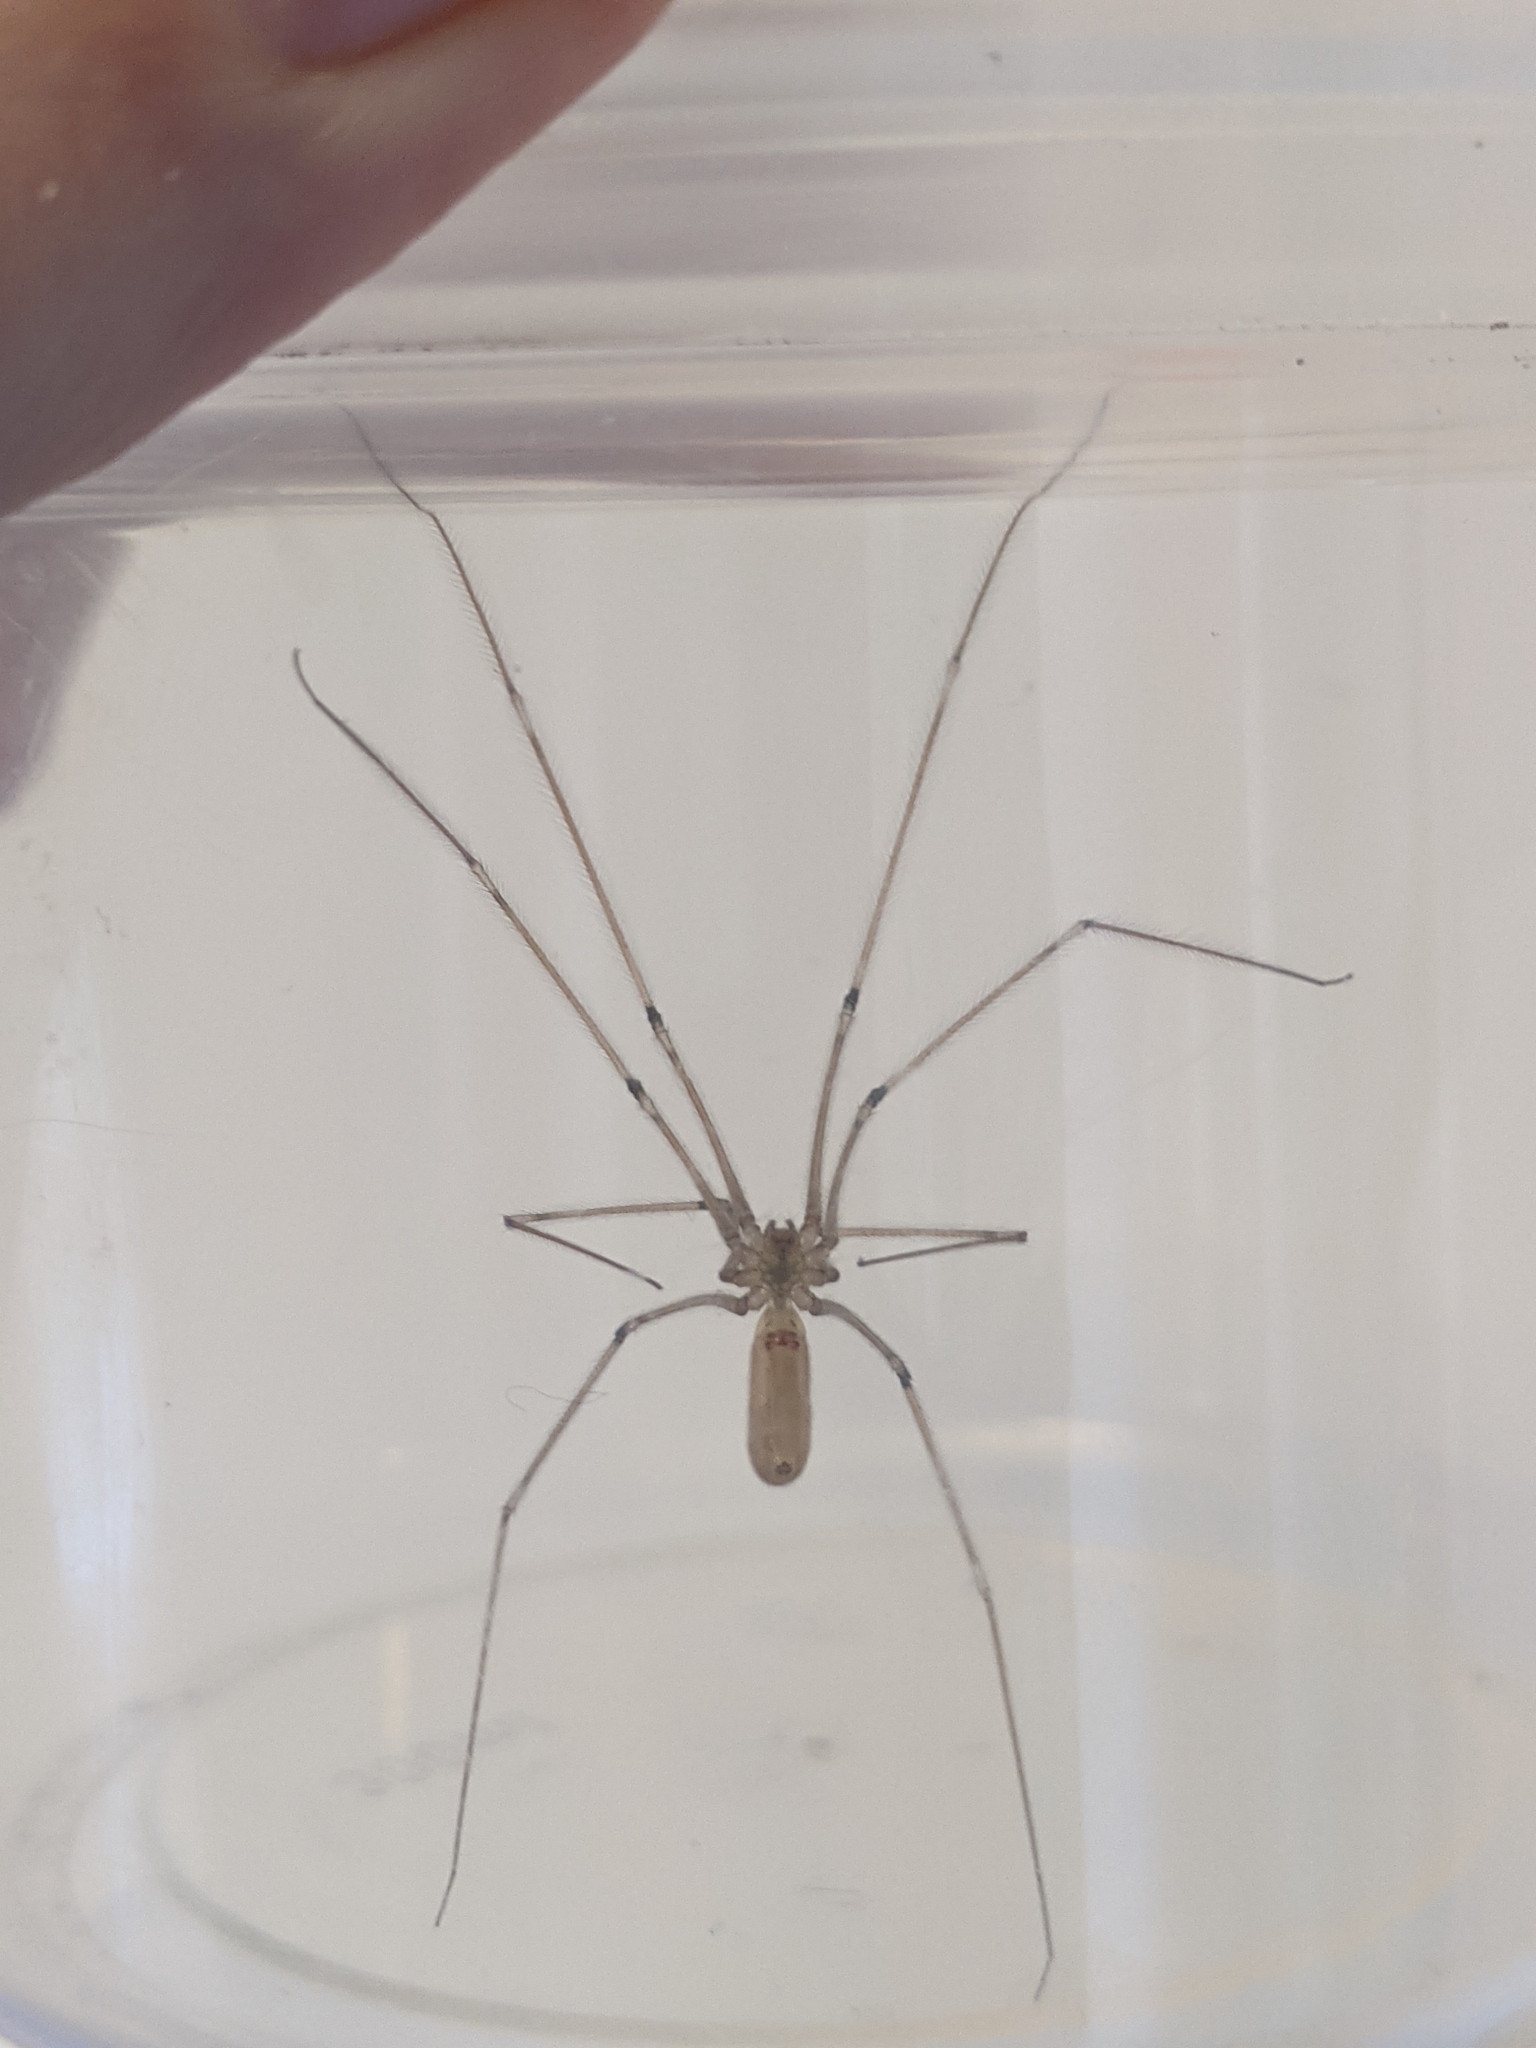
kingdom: Animalia
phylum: Arthropoda
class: Arachnida
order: Araneae
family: Pholcidae
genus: Pholcus
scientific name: Pholcus phalangioides
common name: Longbodied cellar spider
